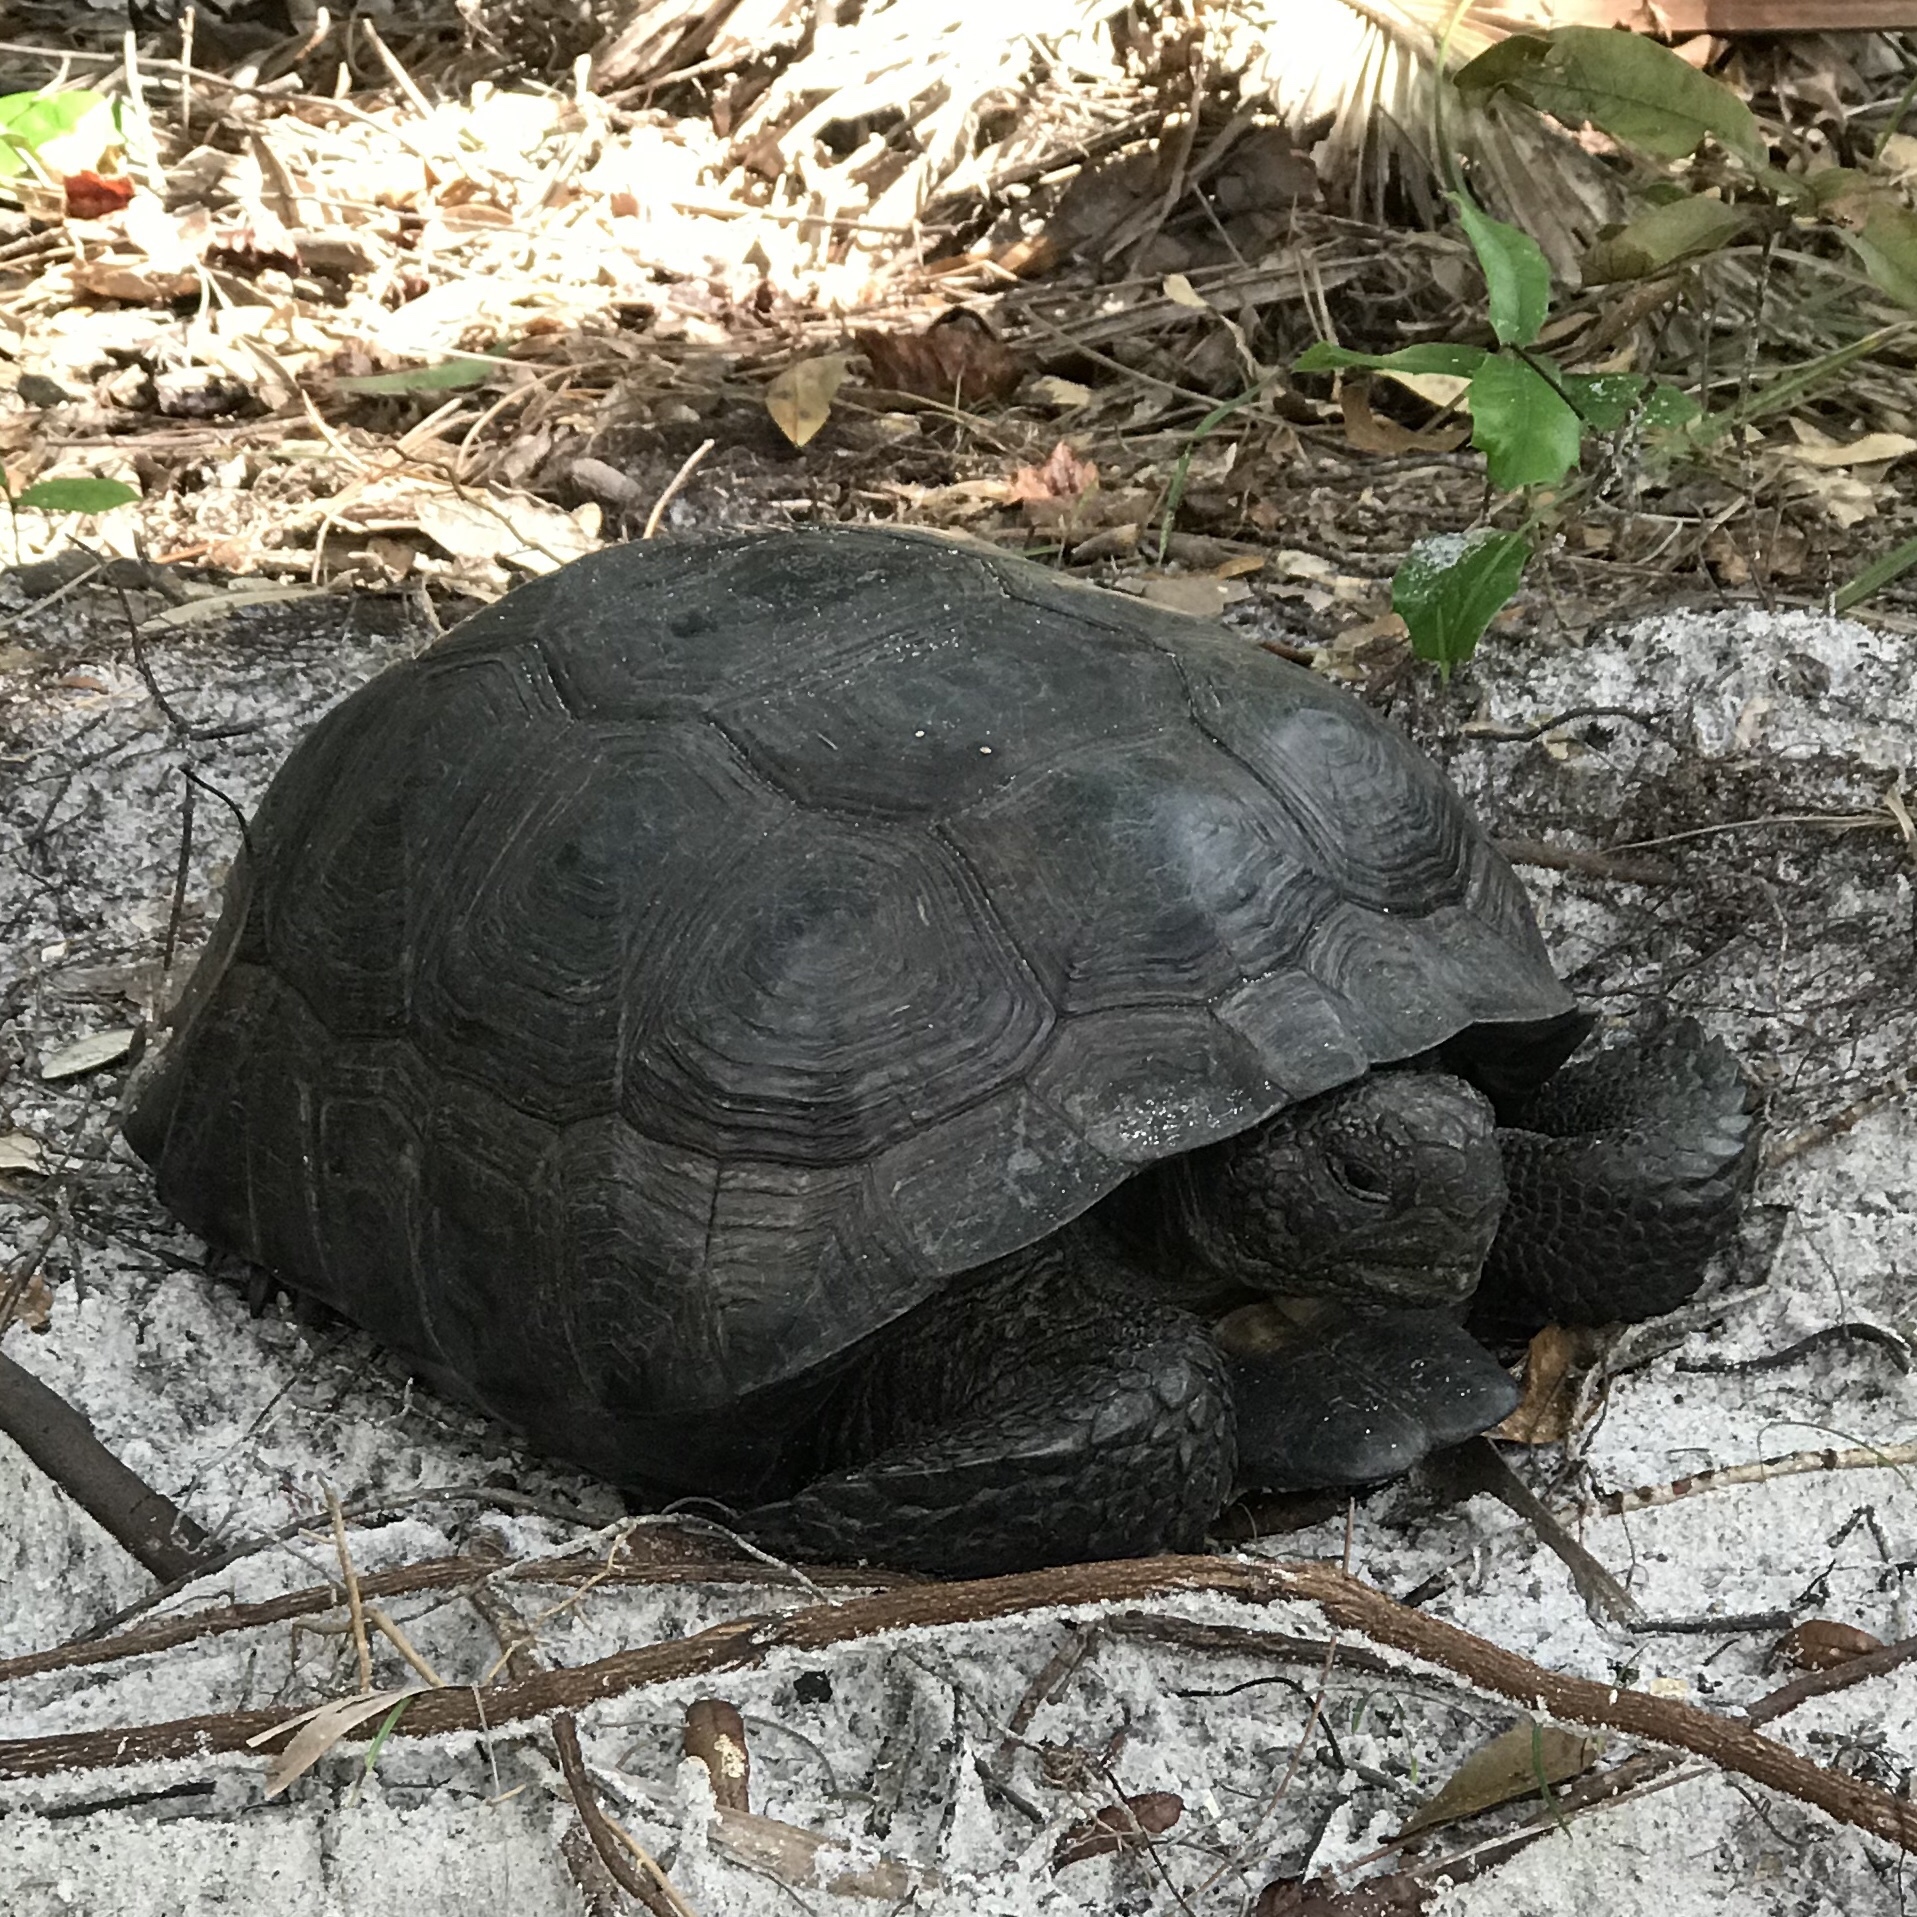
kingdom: Animalia
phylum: Chordata
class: Testudines
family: Testudinidae
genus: Gopherus
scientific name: Gopherus polyphemus
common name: Florida gopher tortoise
